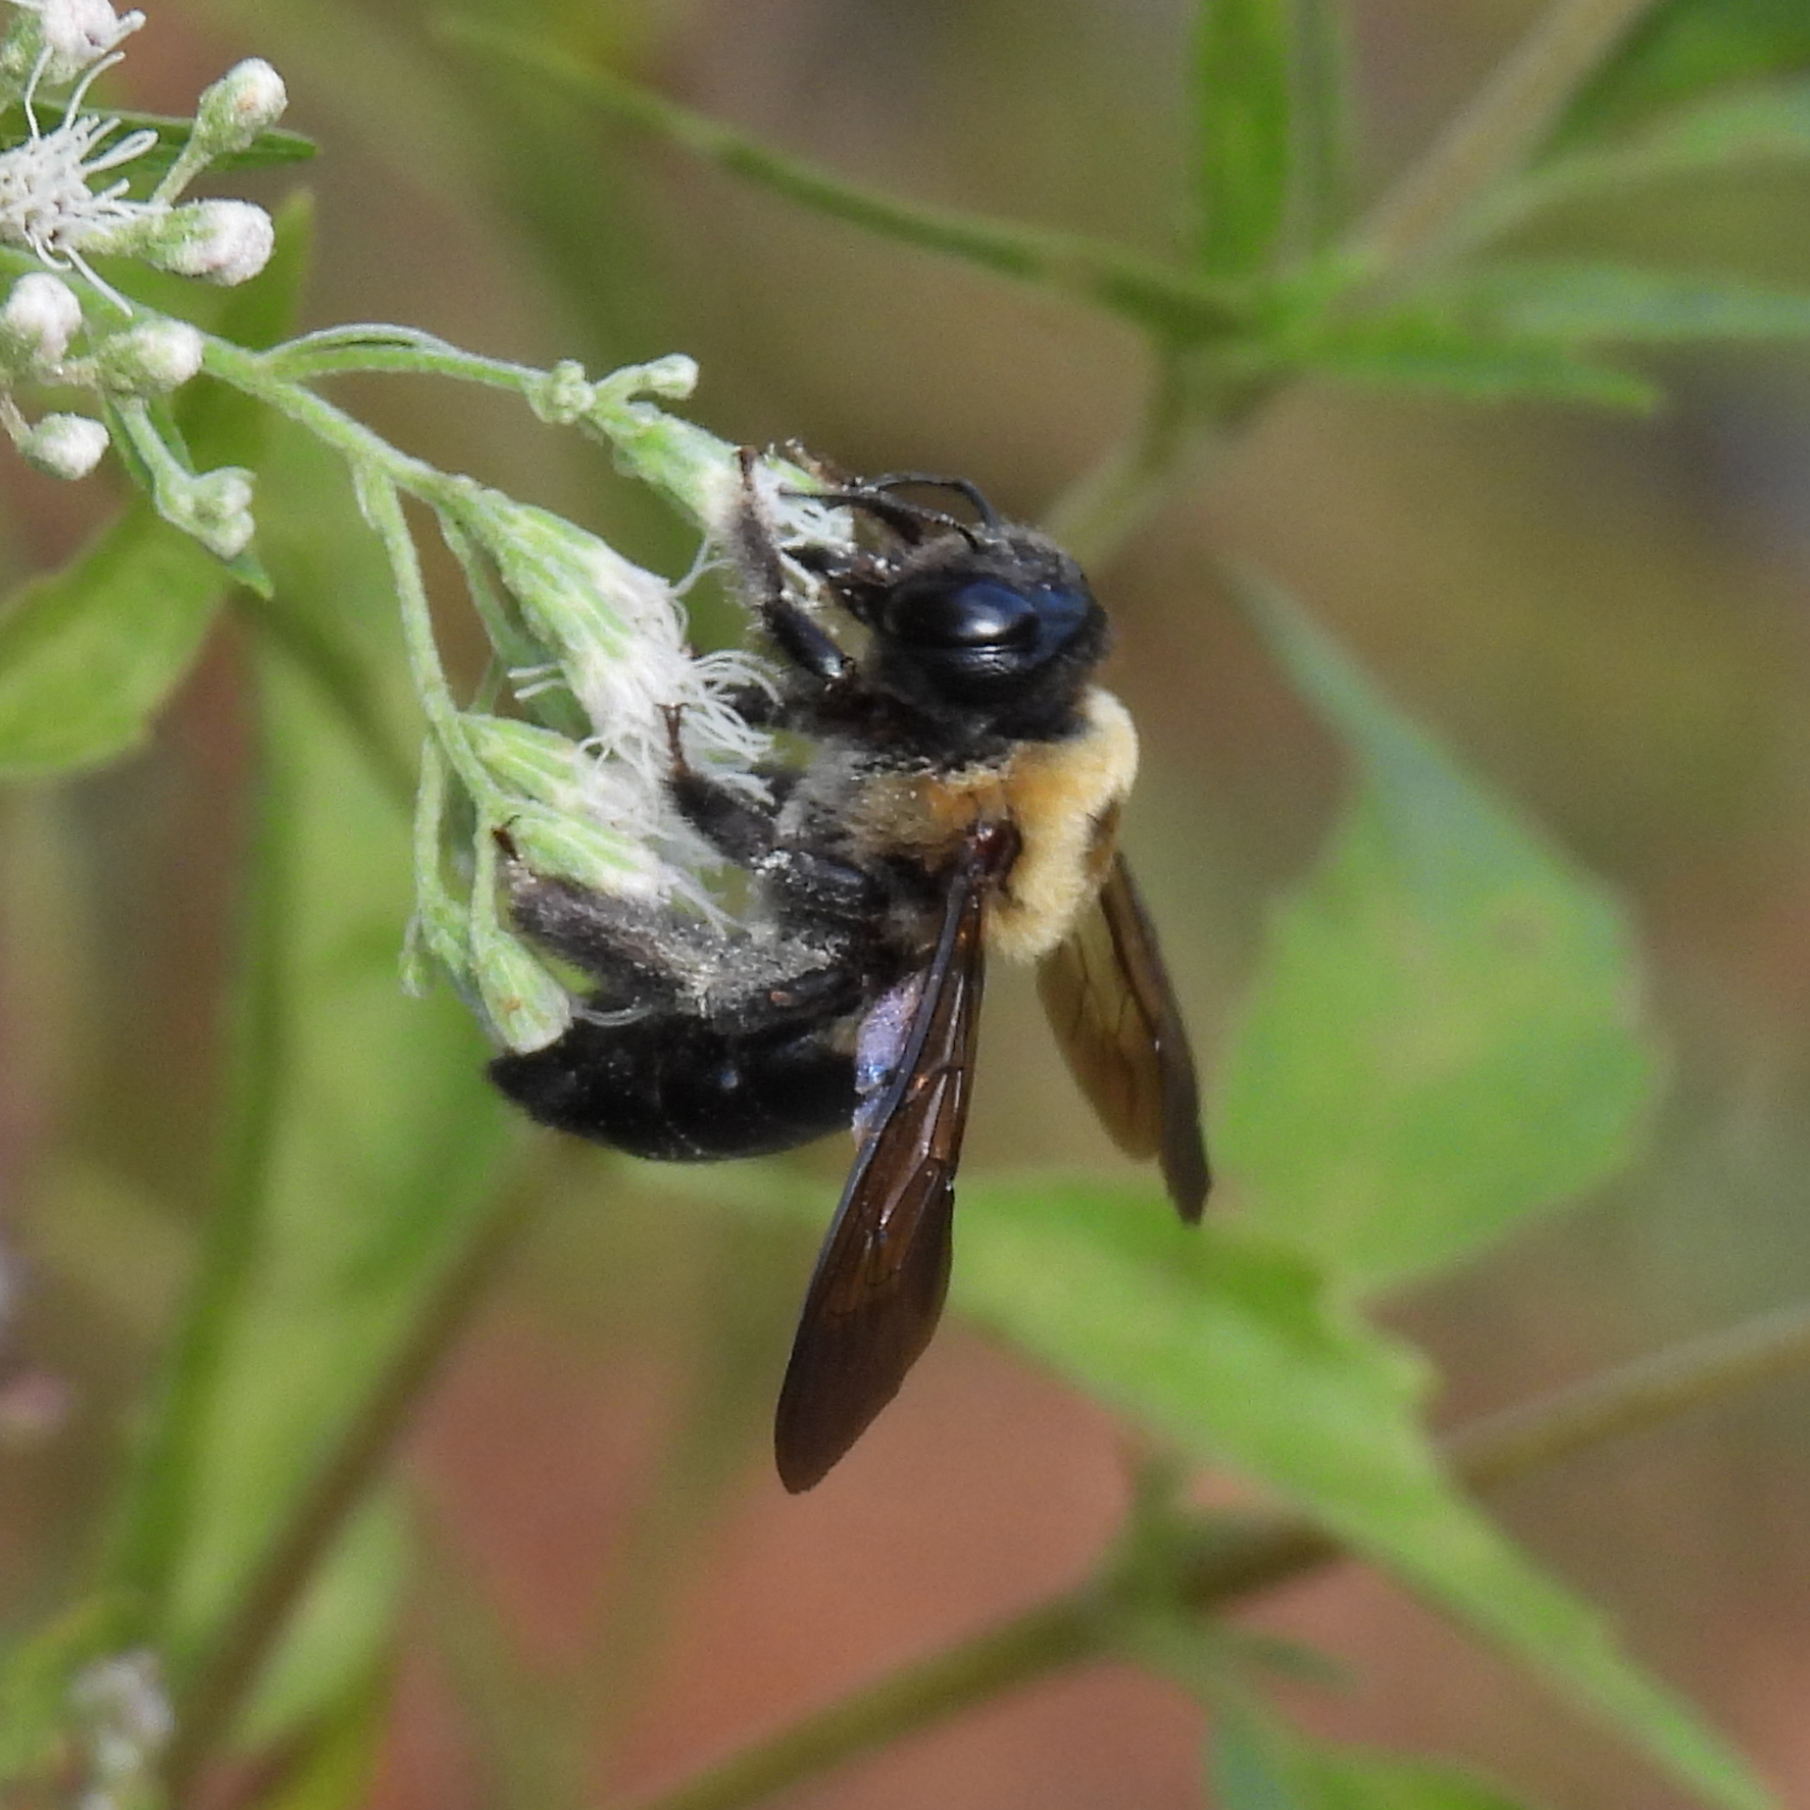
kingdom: Animalia
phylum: Arthropoda
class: Insecta
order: Hymenoptera
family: Apidae
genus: Xylocopa
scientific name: Xylocopa virginica
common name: Carpenter bee
